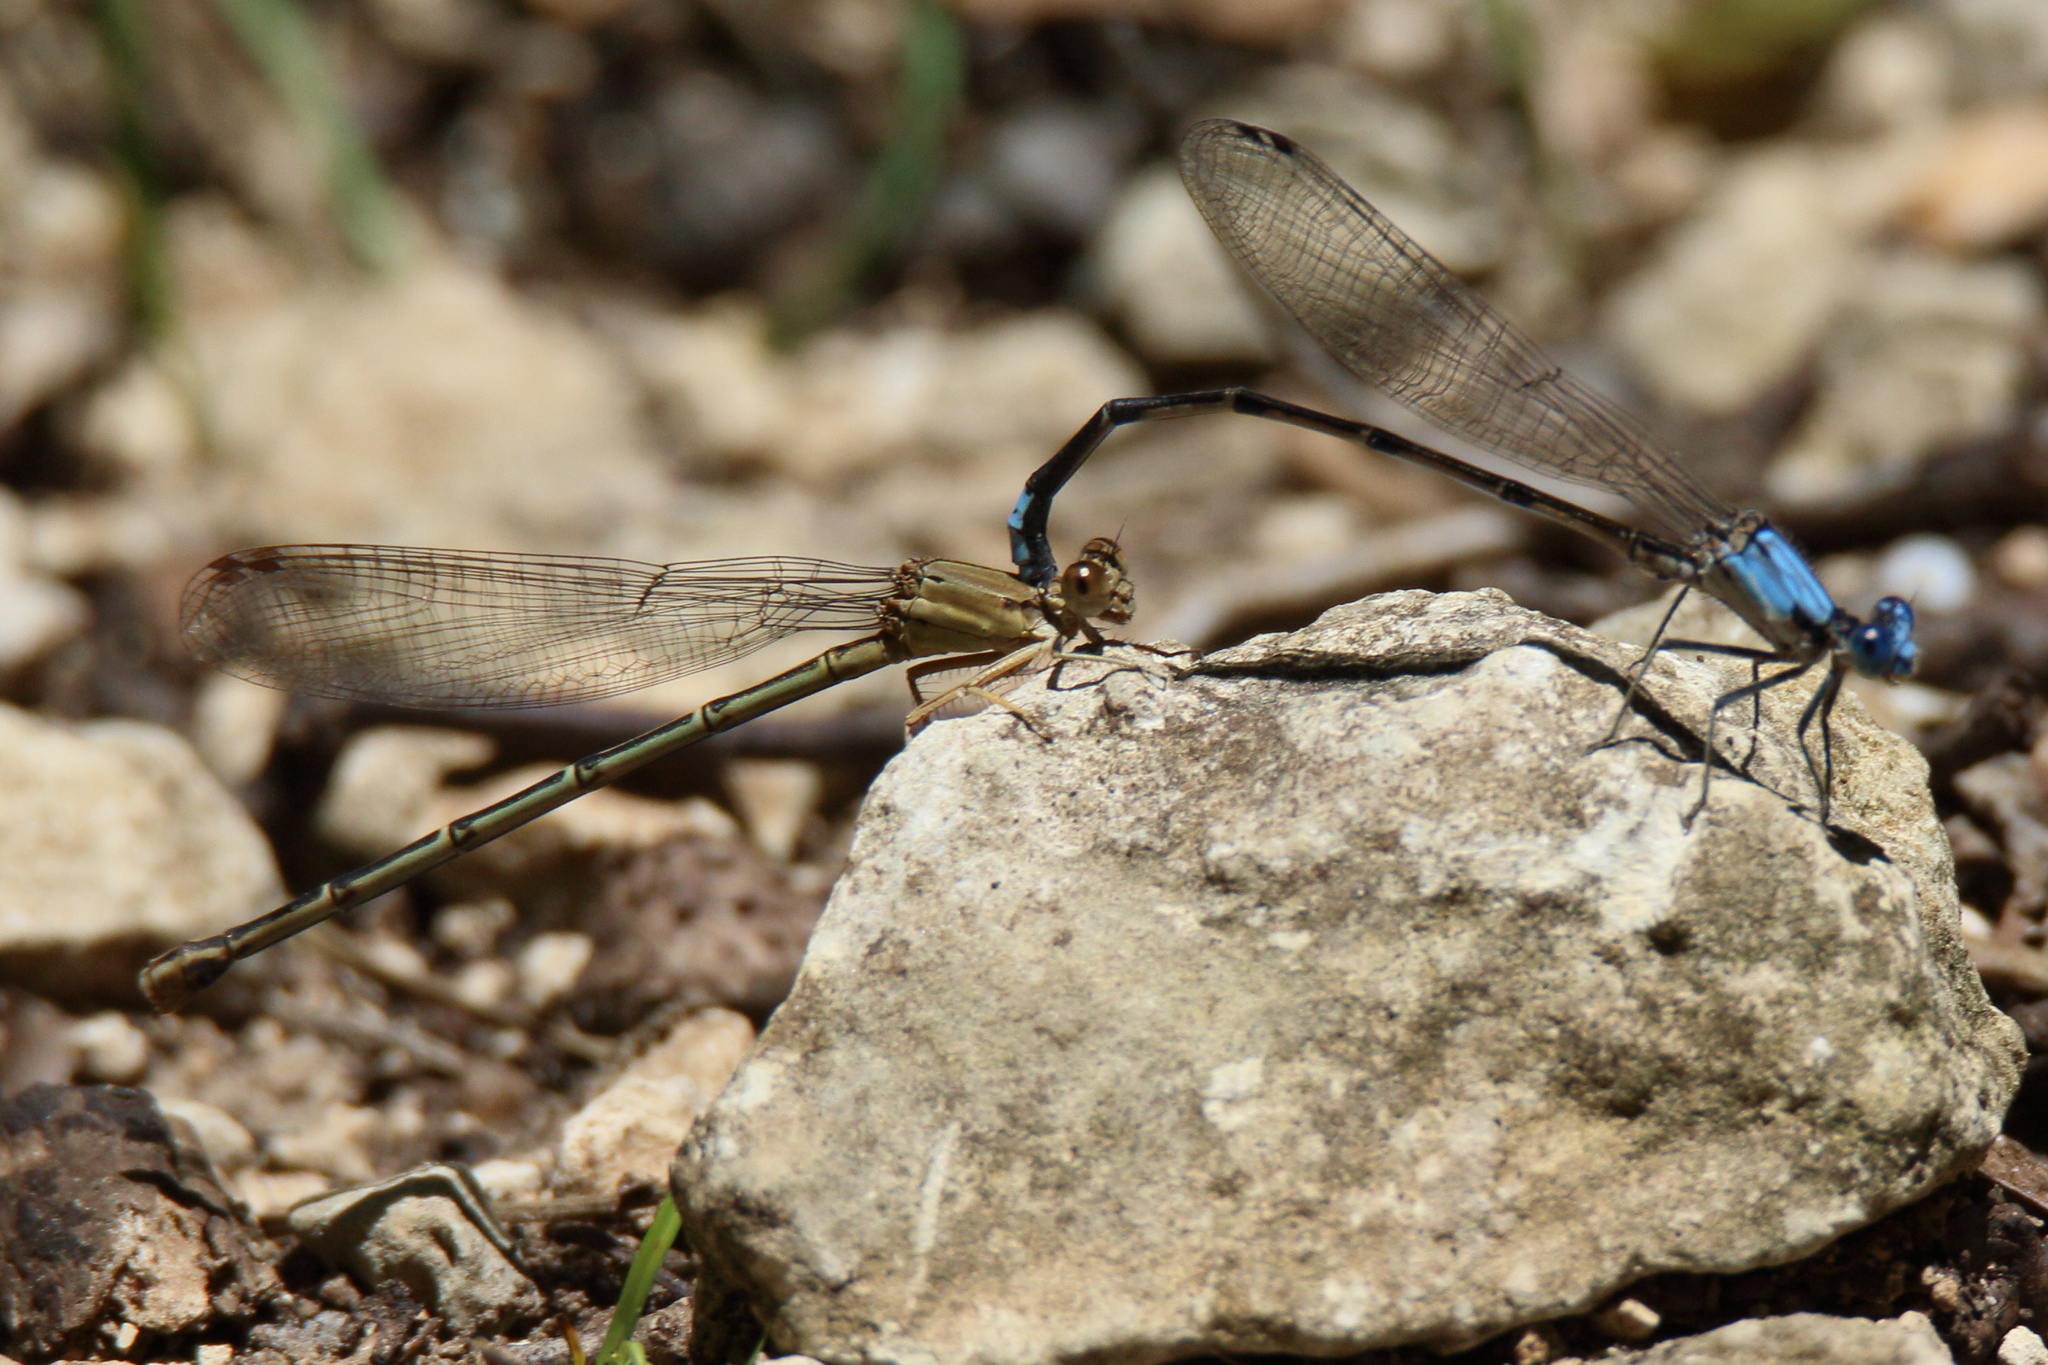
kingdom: Animalia
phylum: Arthropoda
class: Insecta
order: Odonata
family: Coenagrionidae
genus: Argia
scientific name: Argia apicalis
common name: Blue-fronted dancer
